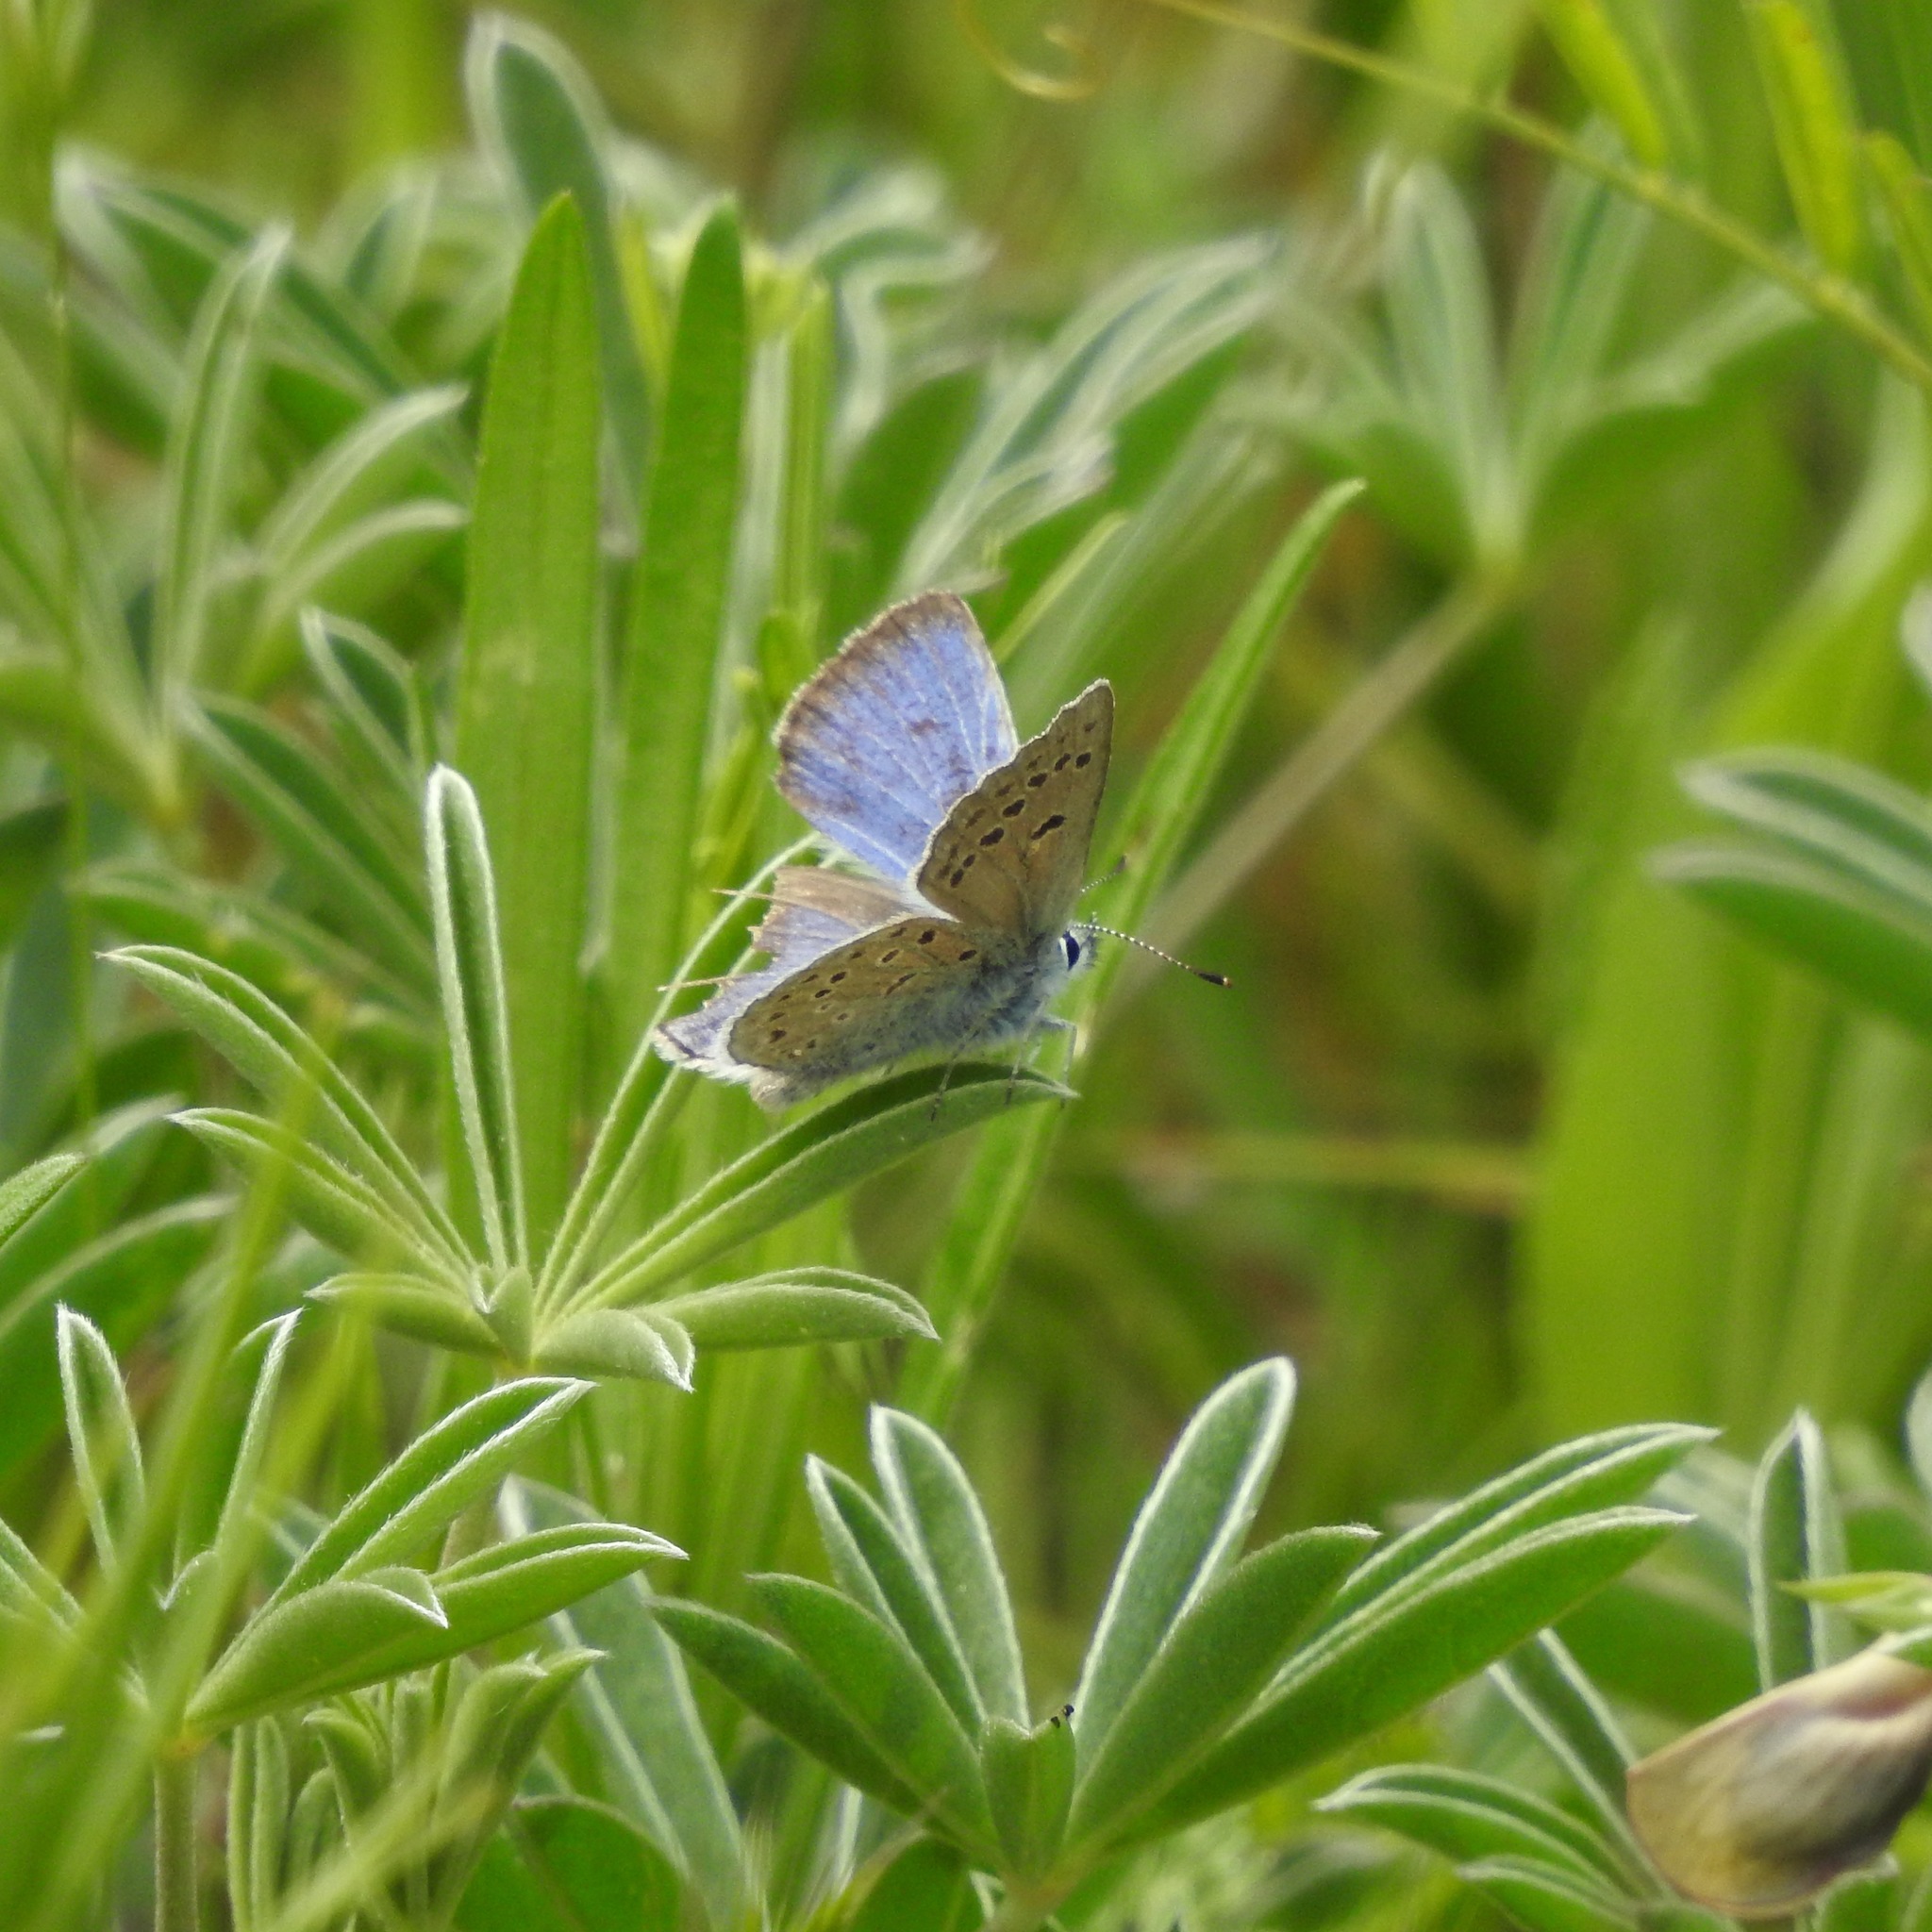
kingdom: Animalia
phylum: Arthropoda
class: Insecta
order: Lepidoptera
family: Lycaenidae
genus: Icaricia
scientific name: Icaricia icarioides
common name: Boisduval's blue
